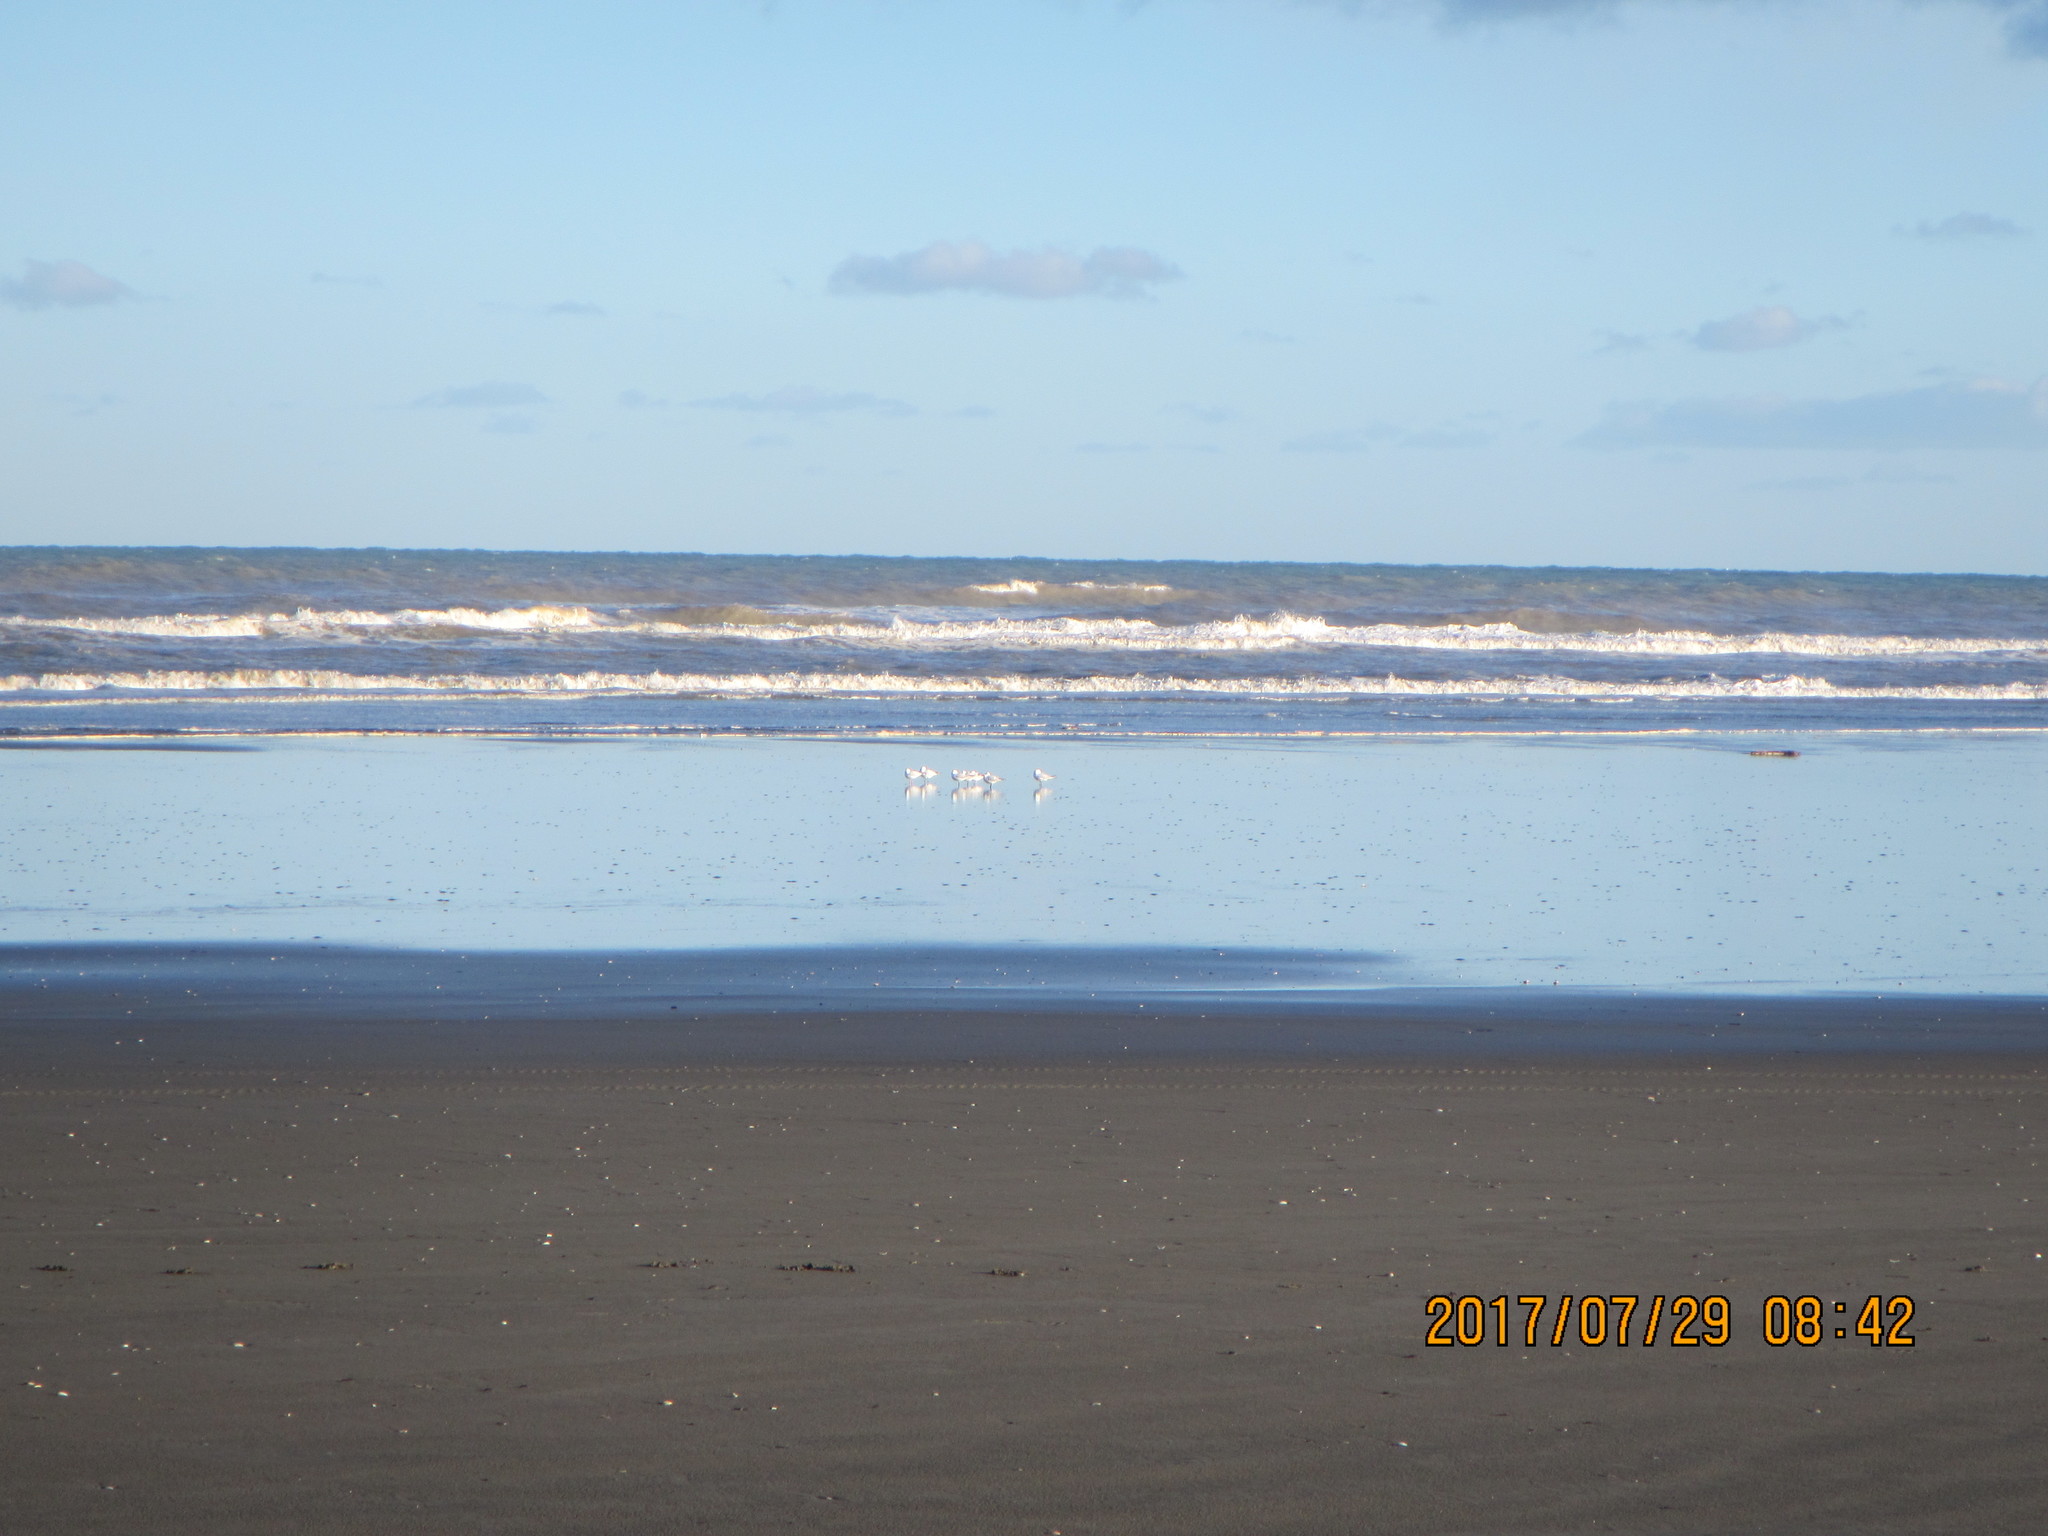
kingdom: Animalia
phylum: Chordata
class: Aves
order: Charadriiformes
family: Haematopodidae
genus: Haematopus
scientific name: Haematopus unicolor
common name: Variable oystercatcher
